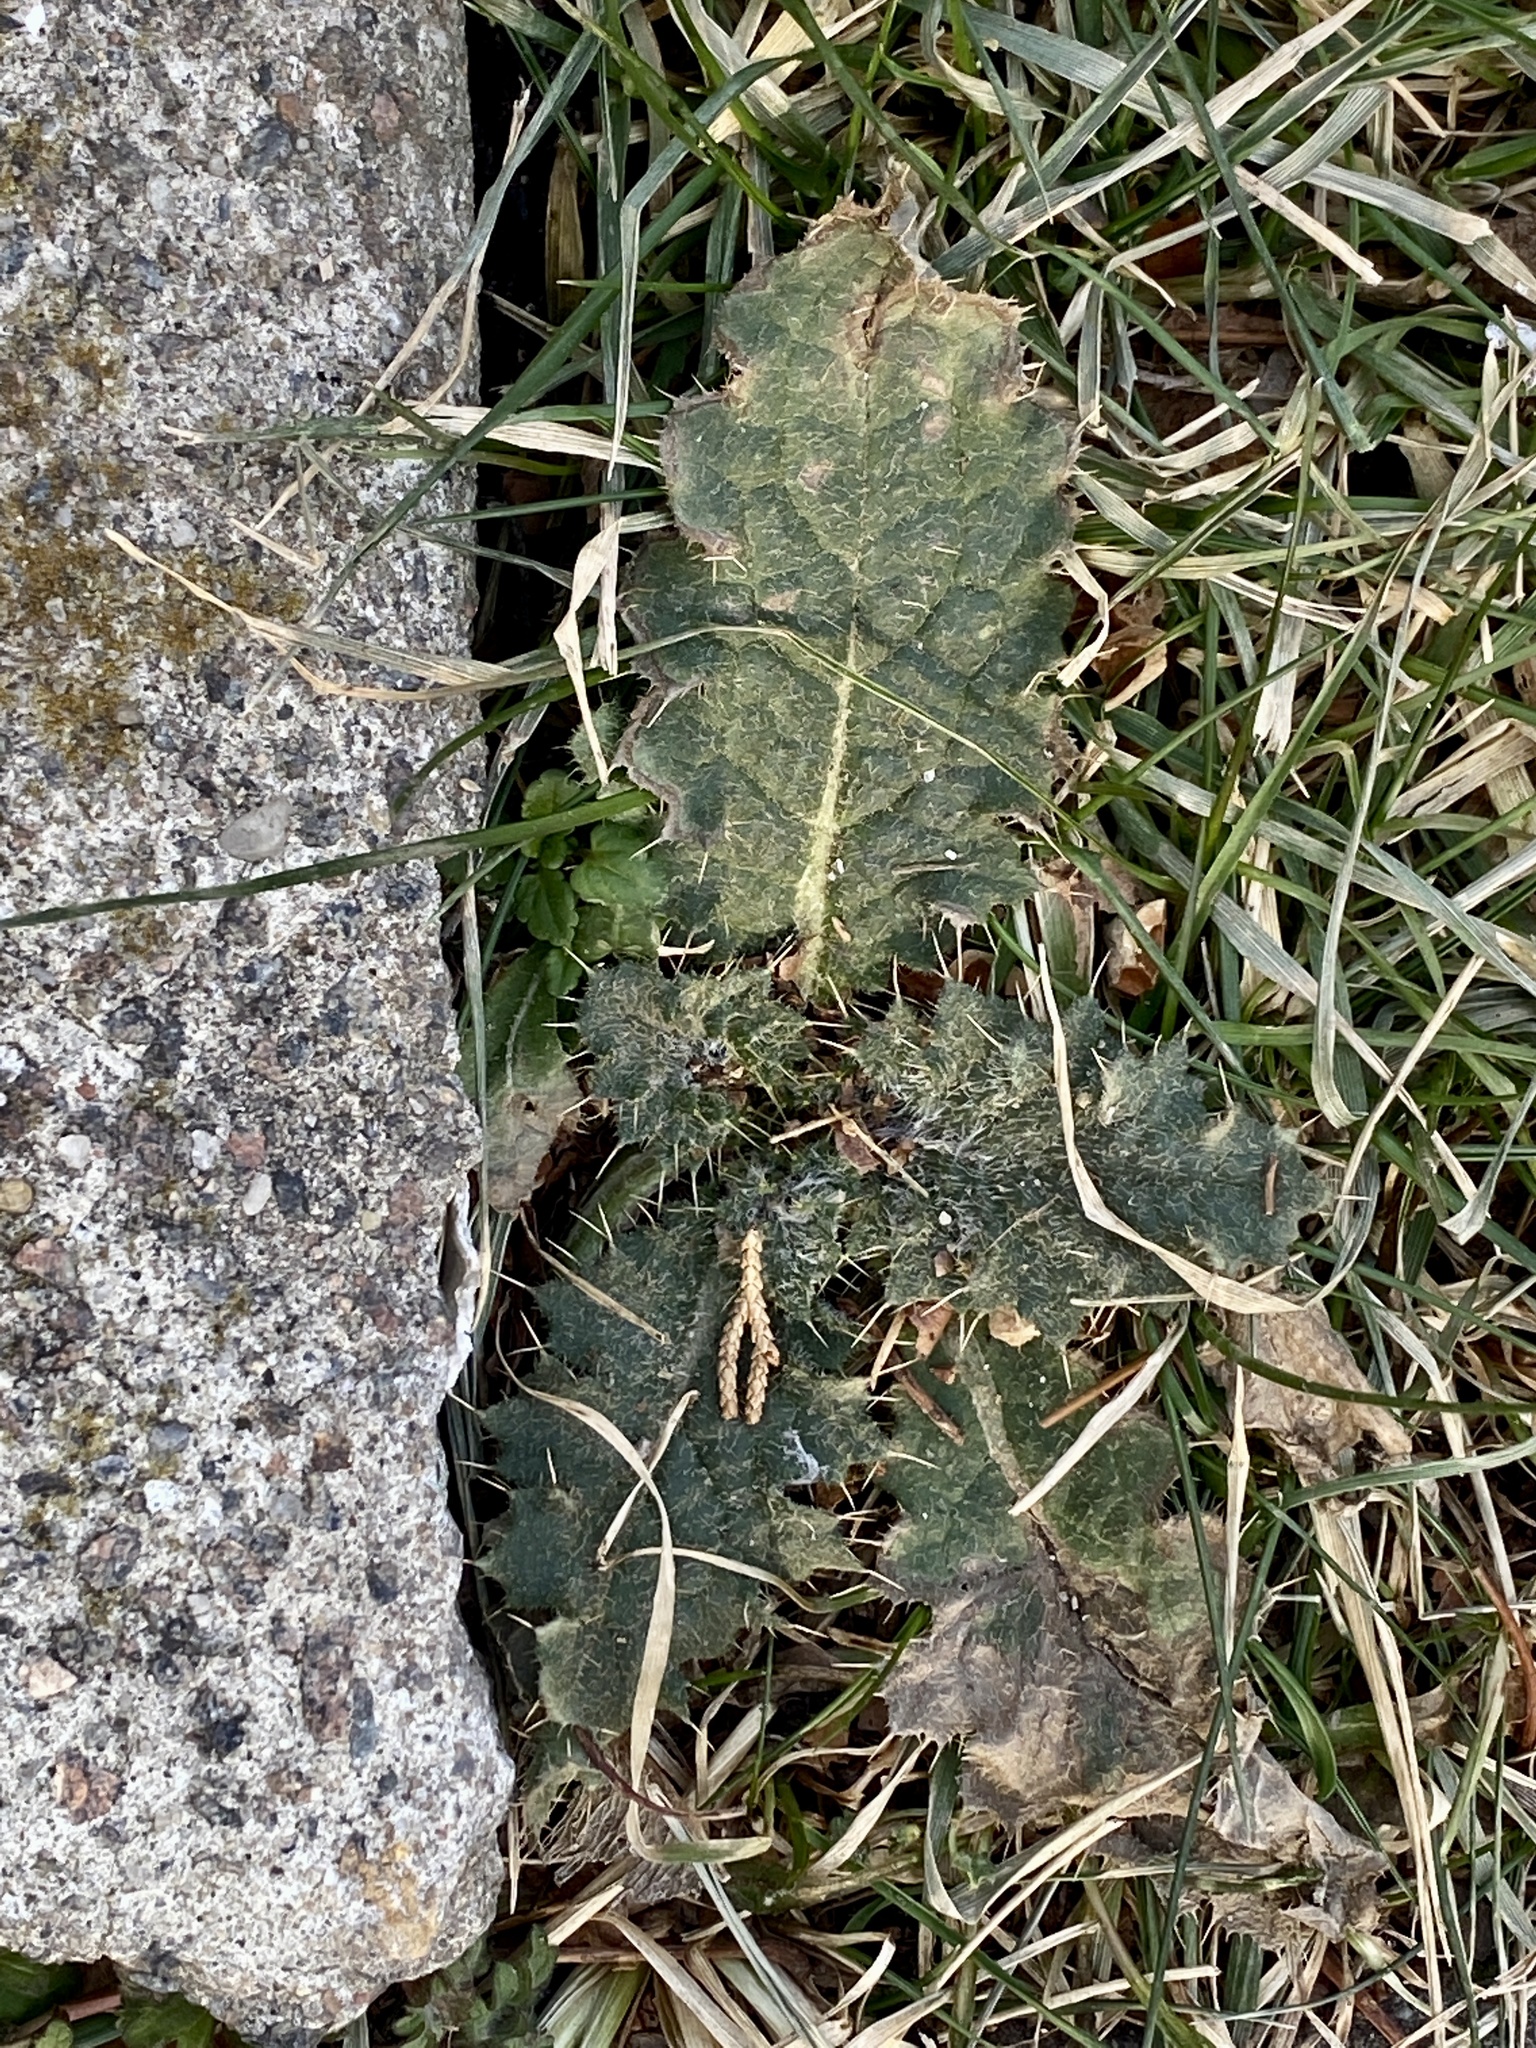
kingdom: Plantae
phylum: Tracheophyta
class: Magnoliopsida
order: Asterales
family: Asteraceae
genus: Cirsium
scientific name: Cirsium vulgare
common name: Bull thistle
